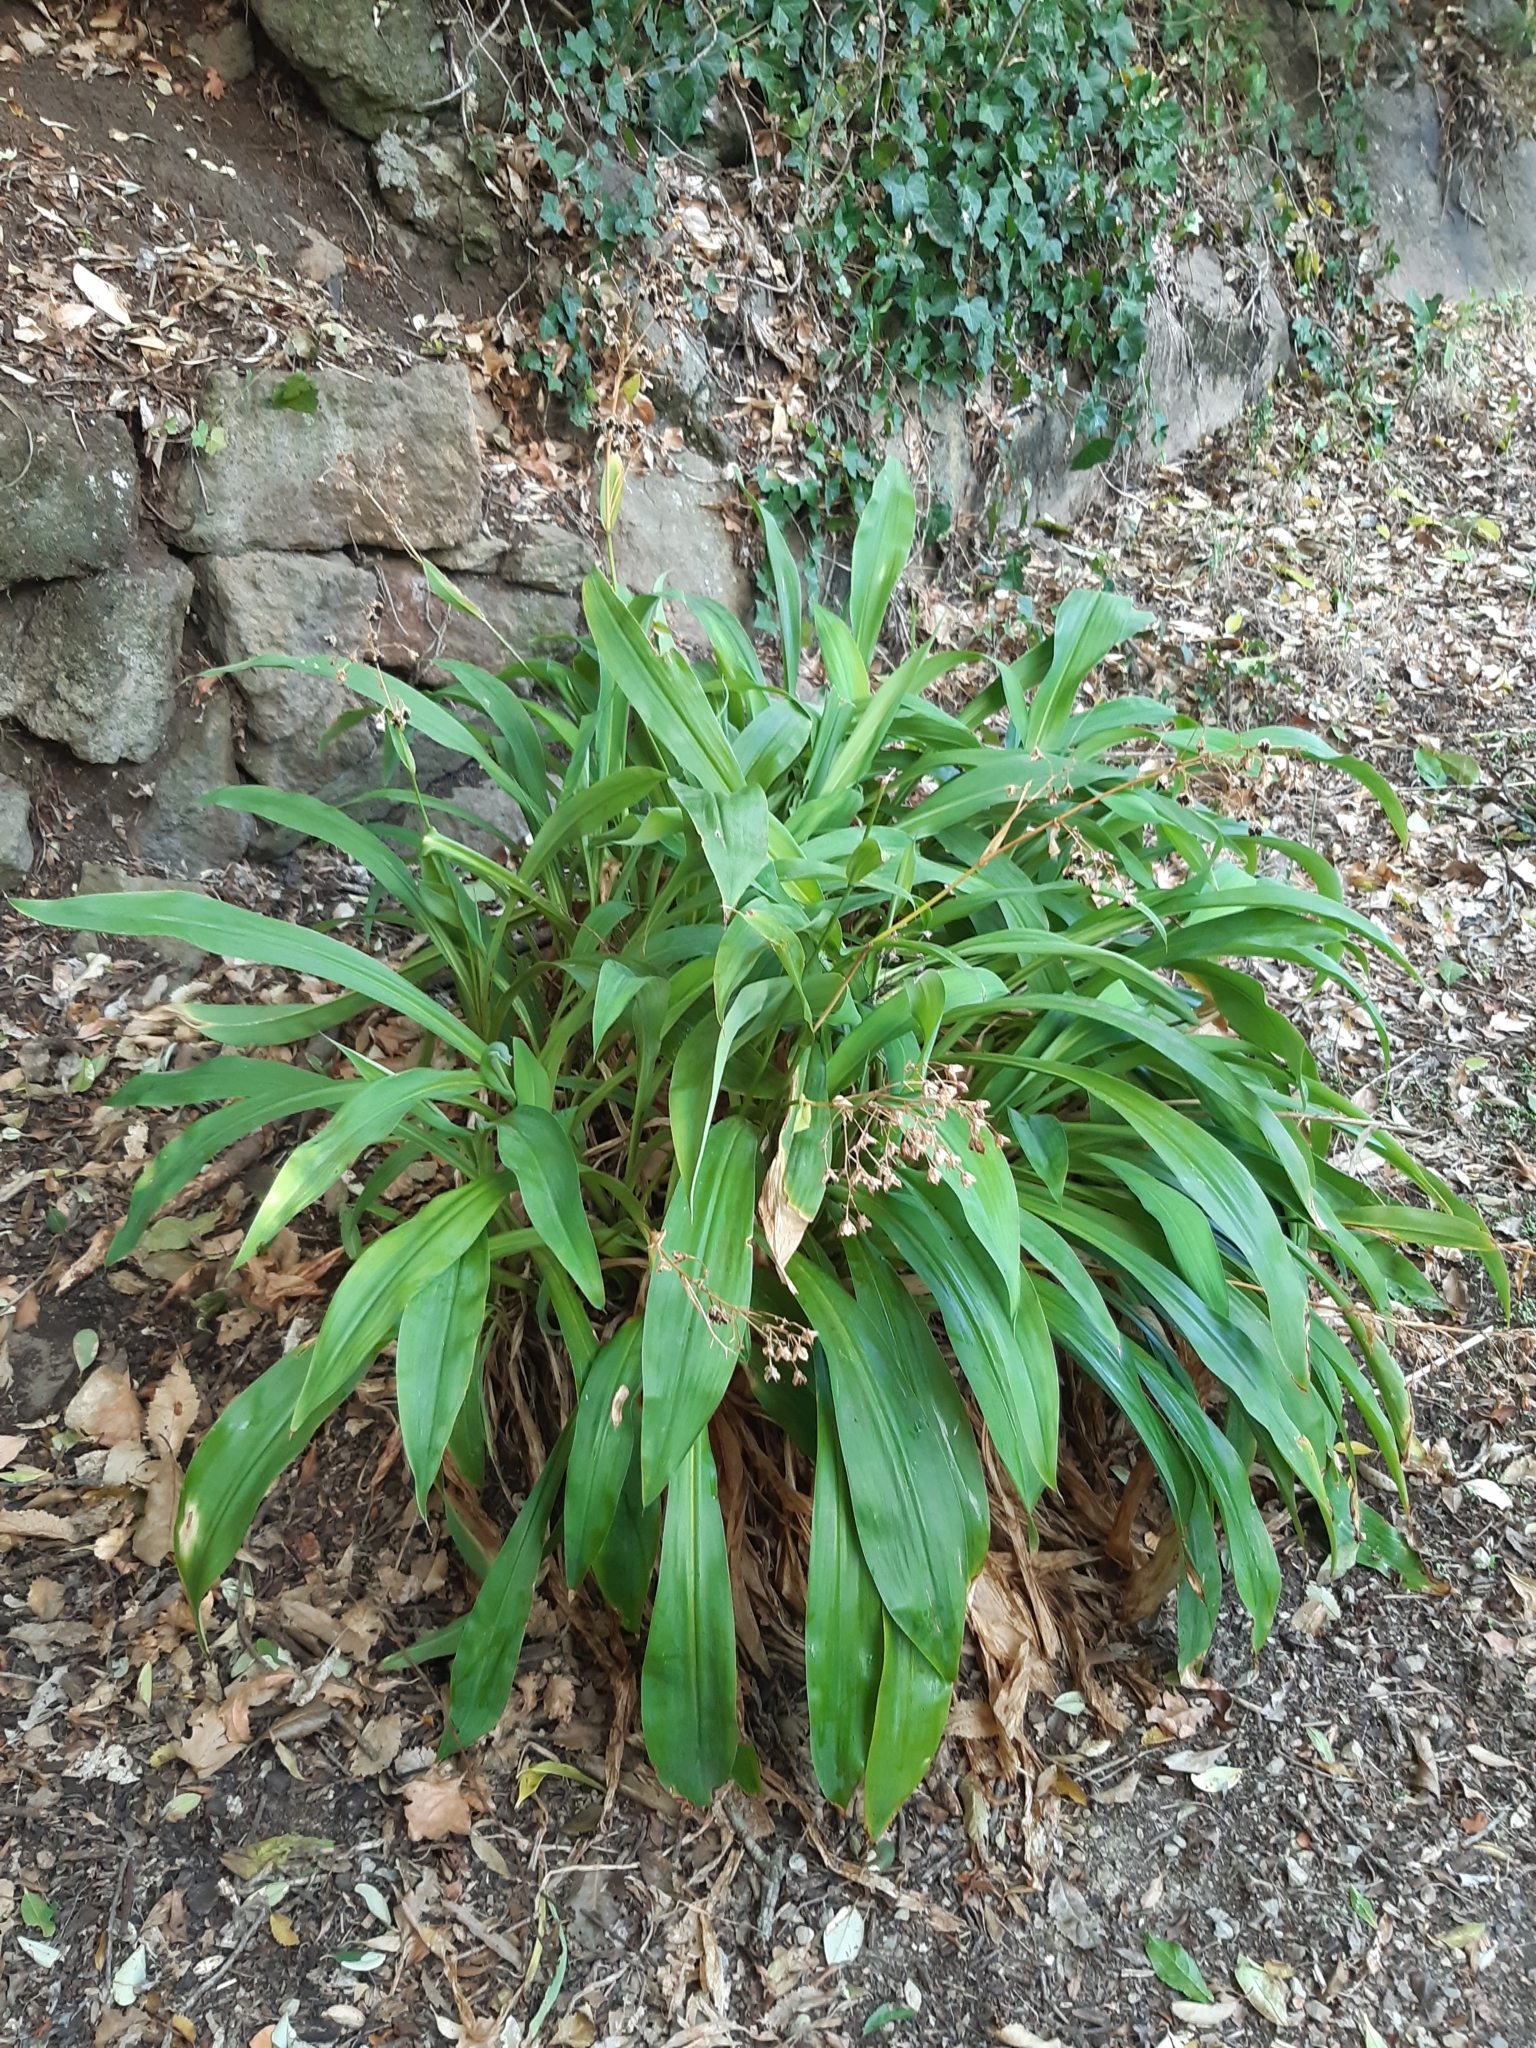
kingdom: Plantae
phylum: Tracheophyta
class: Liliopsida
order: Asparagales
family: Asparagaceae
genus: Arthropodium
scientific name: Arthropodium cirratum
